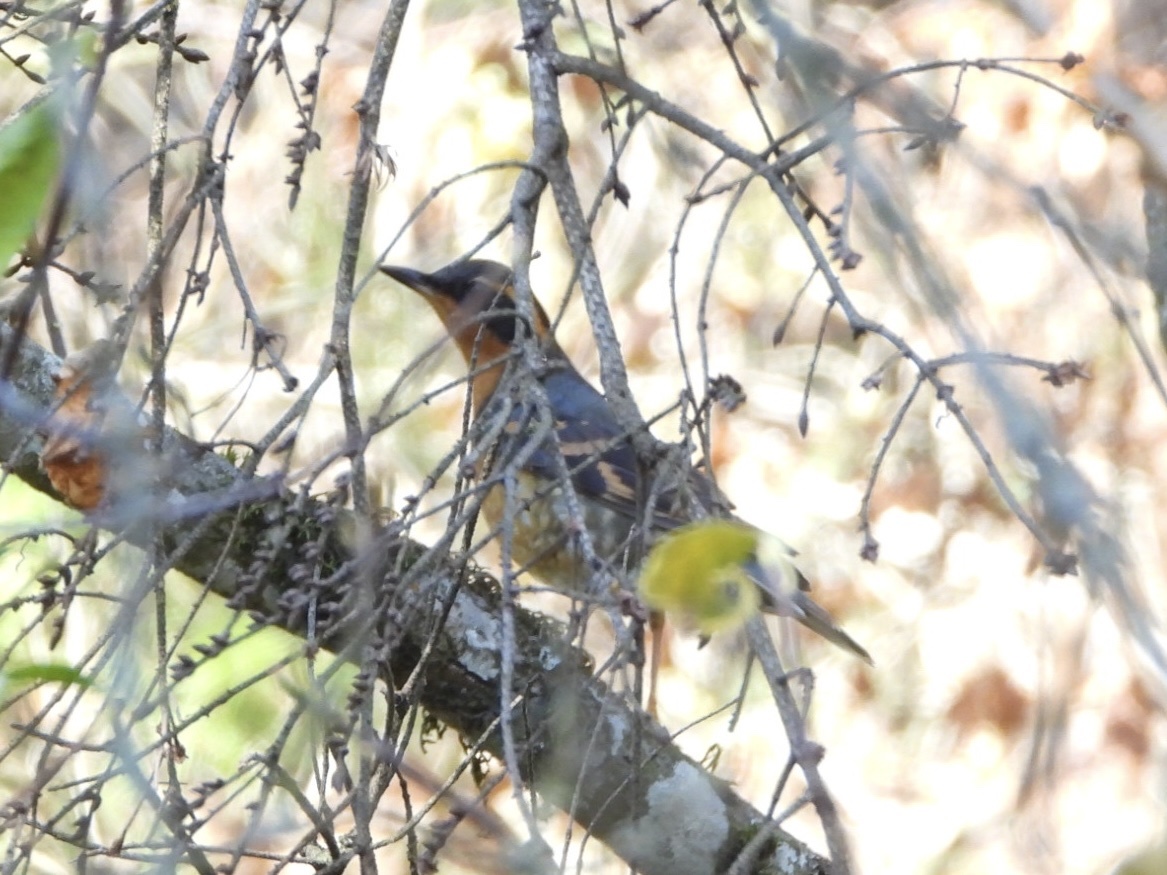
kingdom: Animalia
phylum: Chordata
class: Aves
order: Passeriformes
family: Turdidae
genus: Ixoreus
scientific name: Ixoreus naevius
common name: Varied thrush
